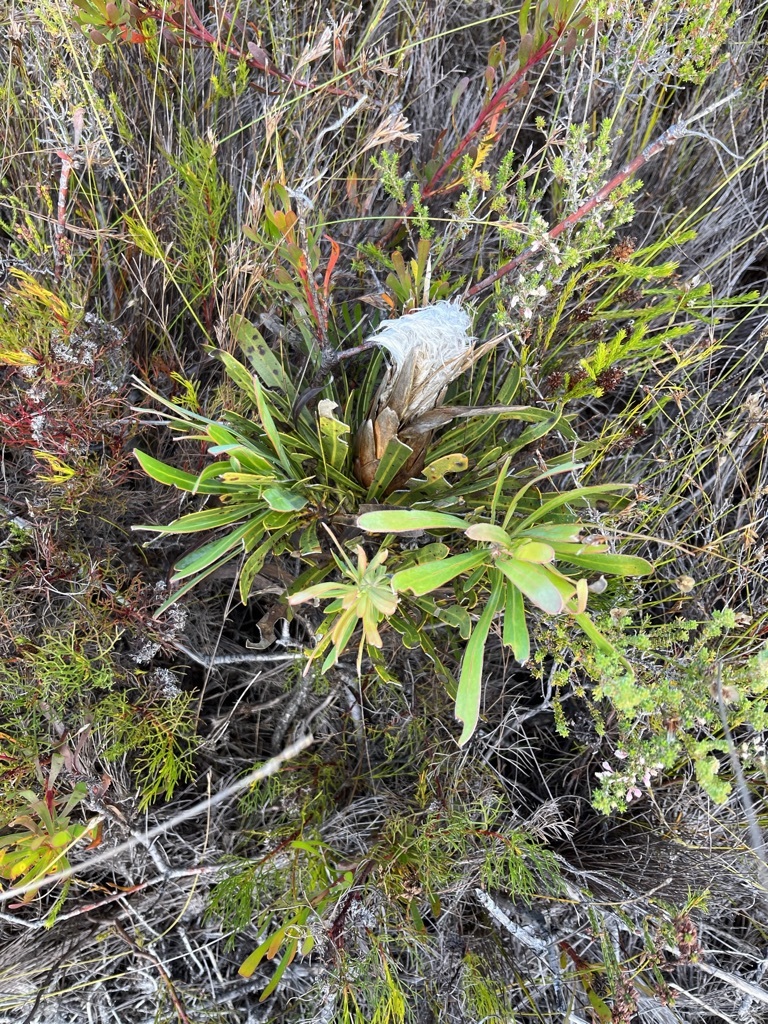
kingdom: Plantae
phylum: Tracheophyta
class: Magnoliopsida
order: Proteales
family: Proteaceae
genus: Protea
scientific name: Protea longifolia
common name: Long-leaf sugarbush
